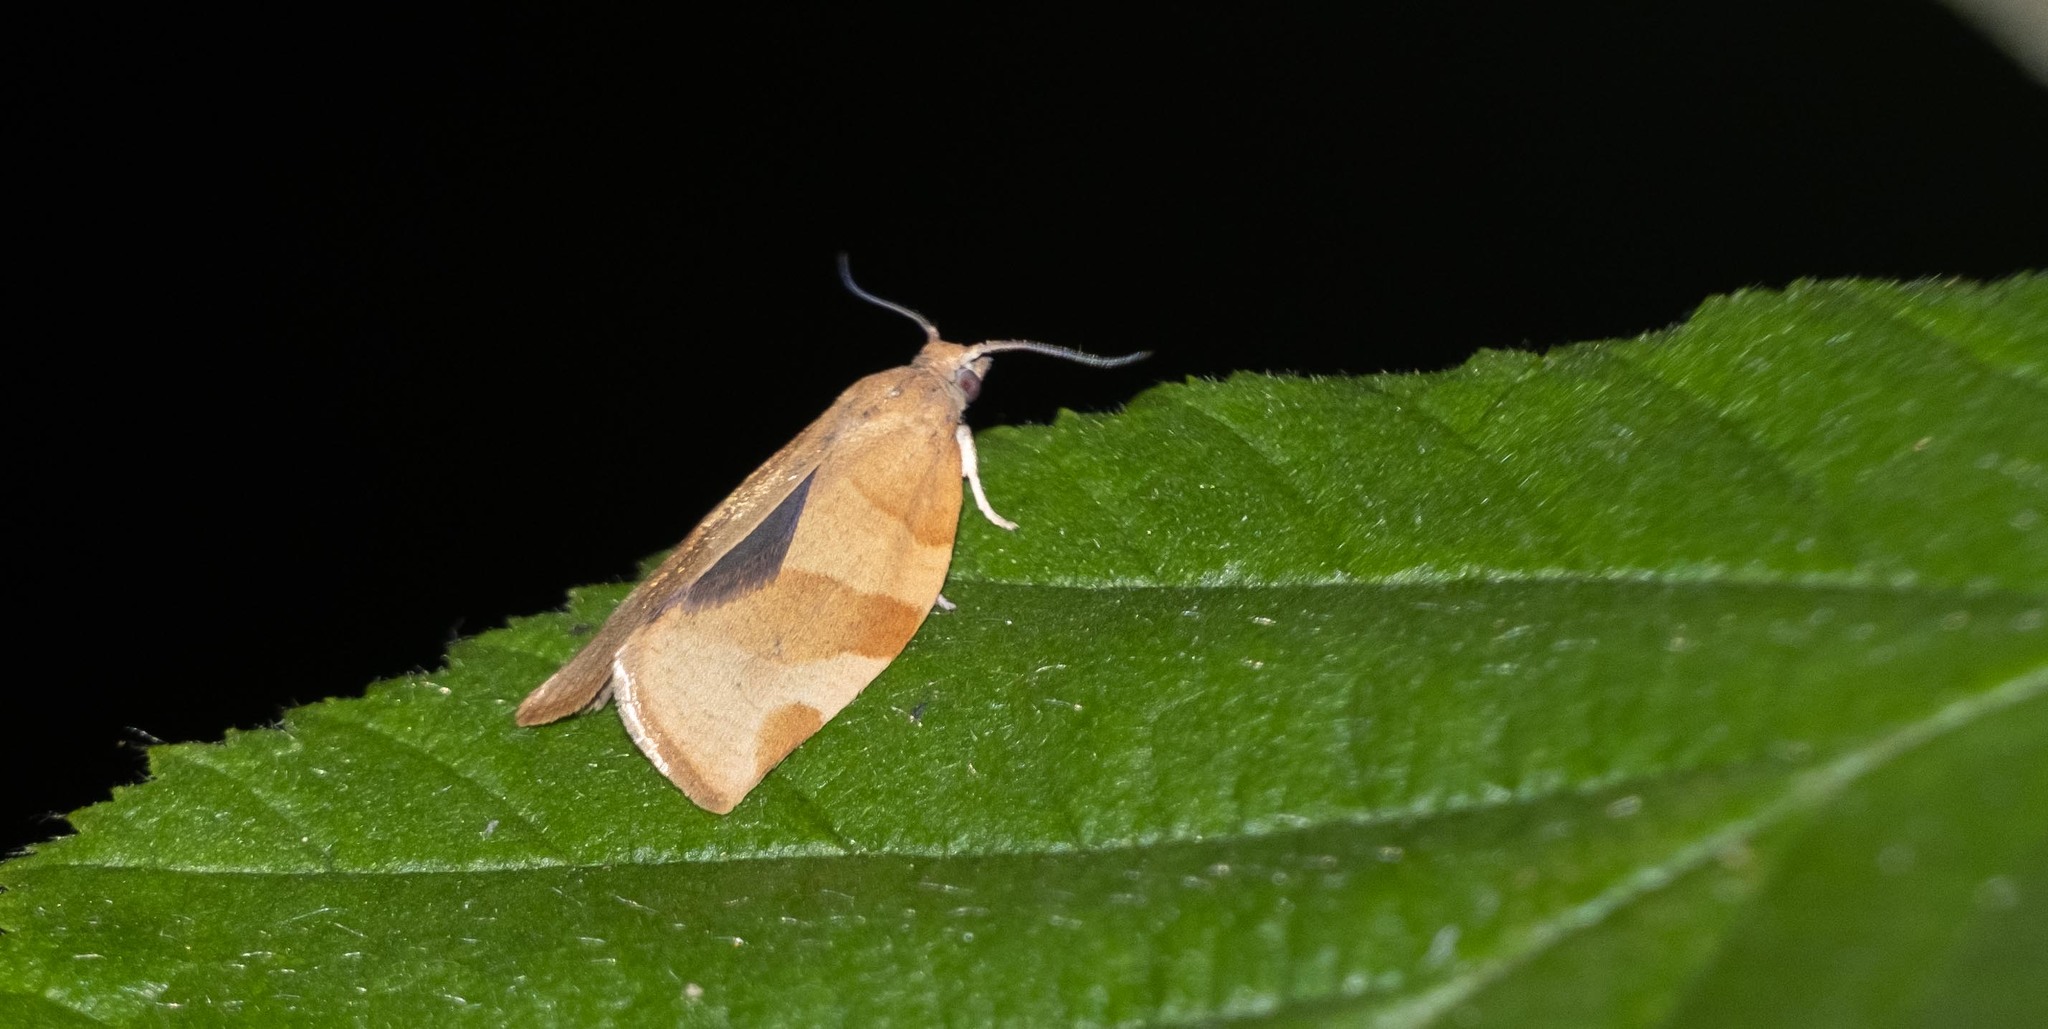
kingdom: Animalia
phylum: Arthropoda
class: Insecta
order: Lepidoptera
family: Tortricidae
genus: Pandemis
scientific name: Pandemis cerasana
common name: Barred fruit-tree tortrix
